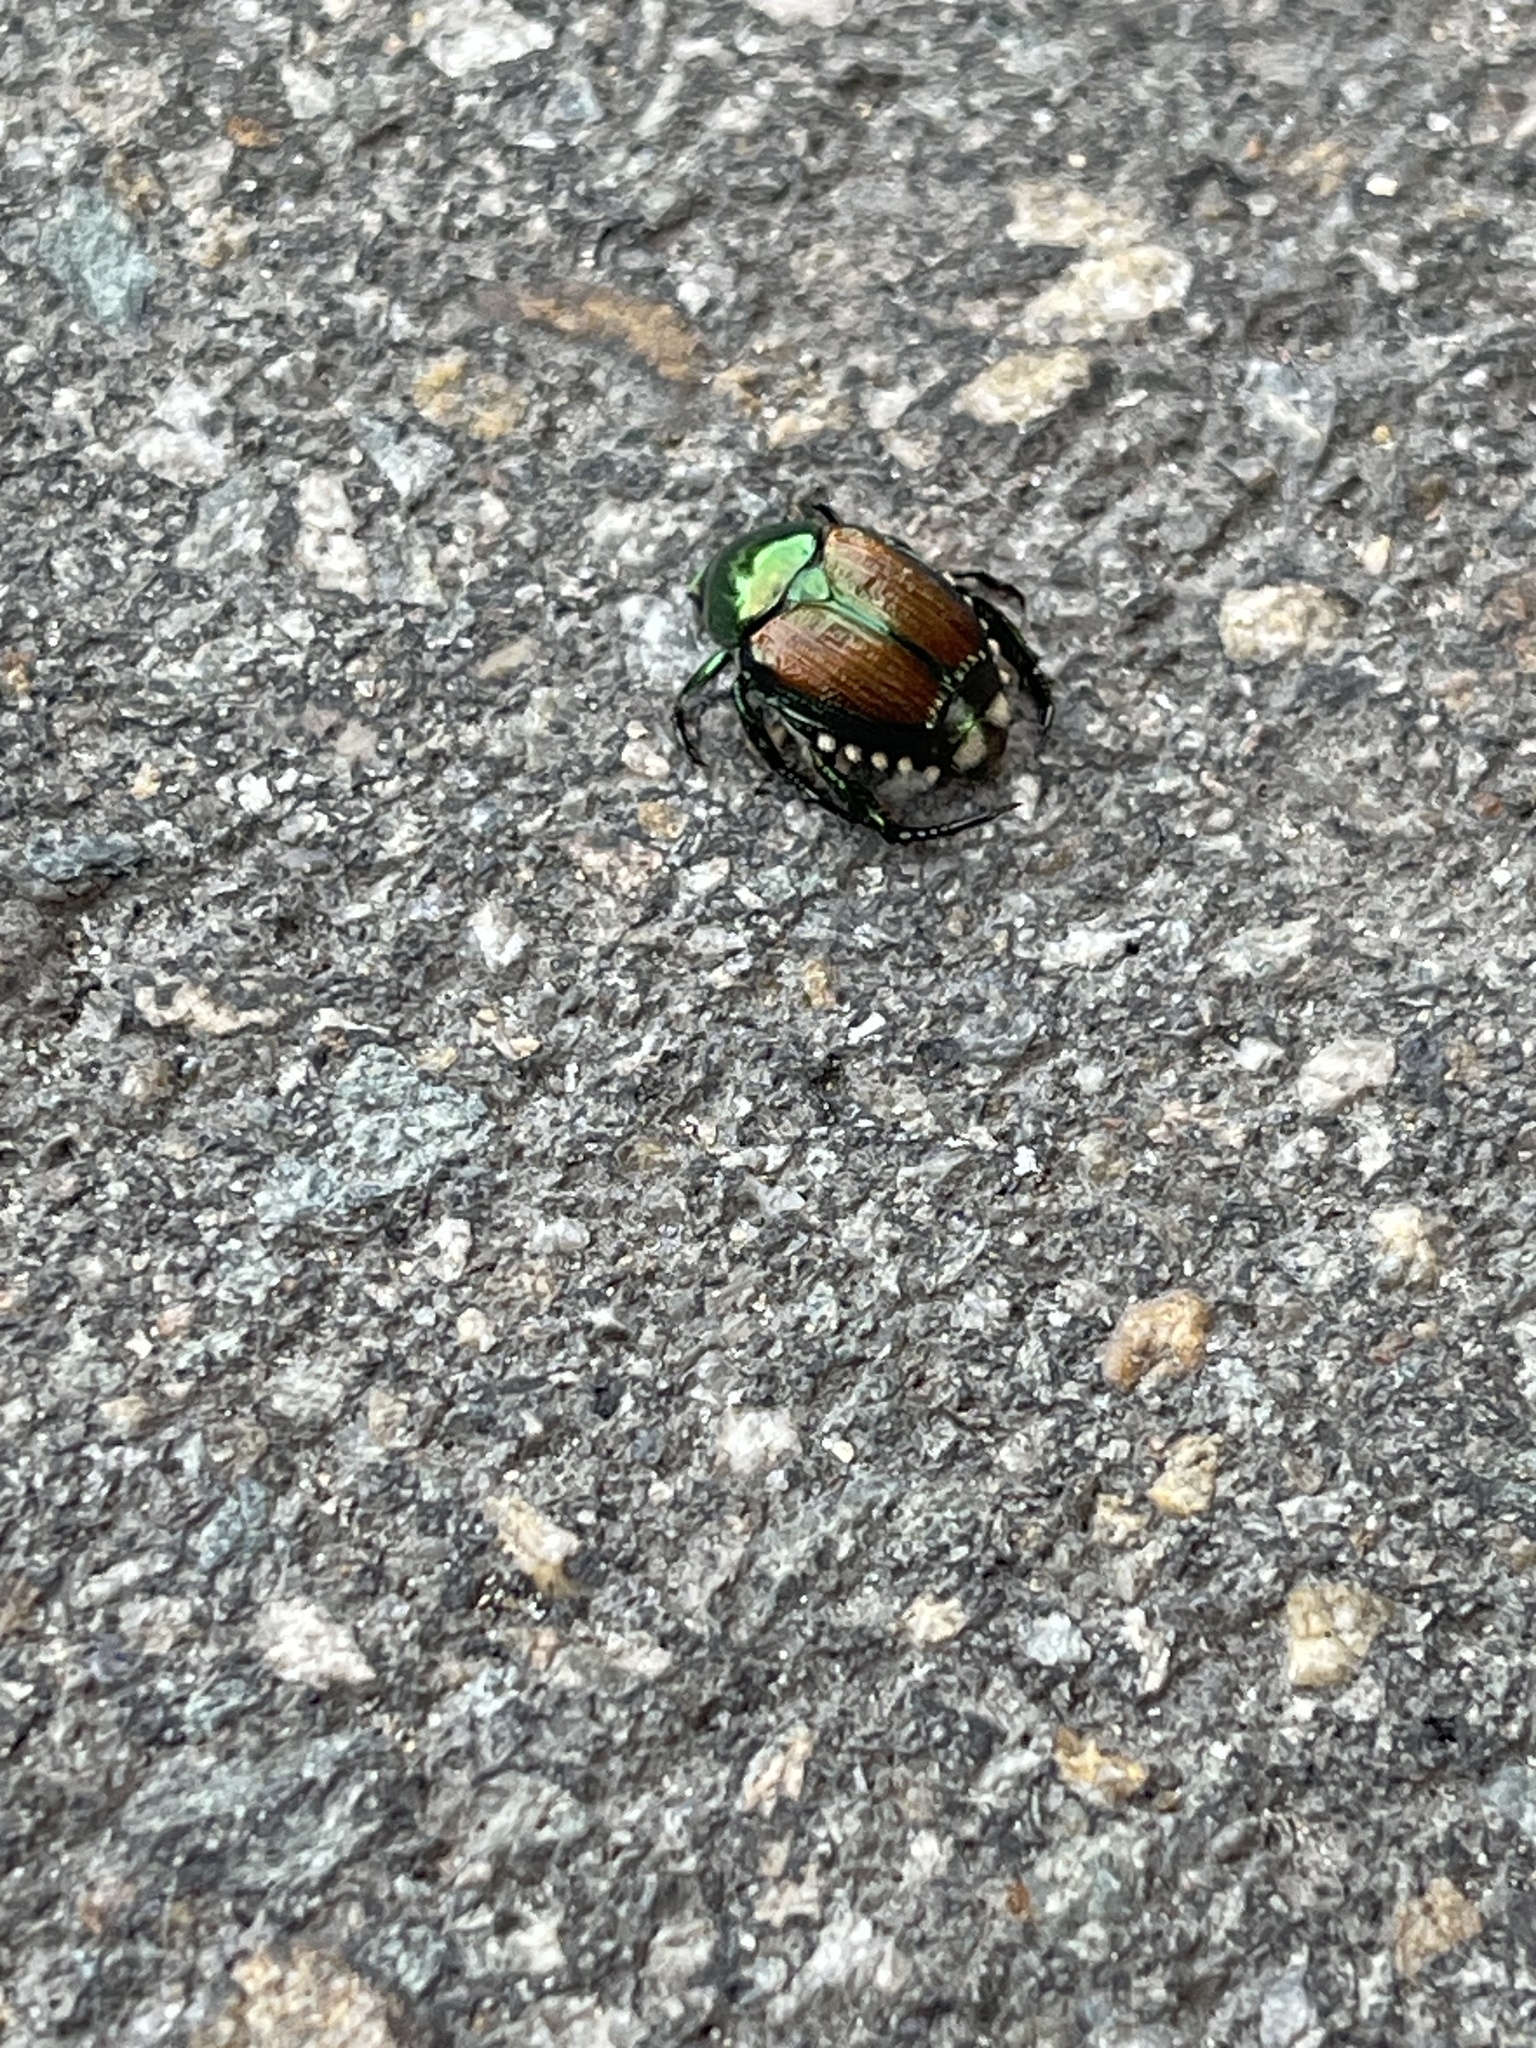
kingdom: Animalia
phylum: Arthropoda
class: Insecta
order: Coleoptera
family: Scarabaeidae
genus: Popillia
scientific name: Popillia japonica
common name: Japanese beetle
